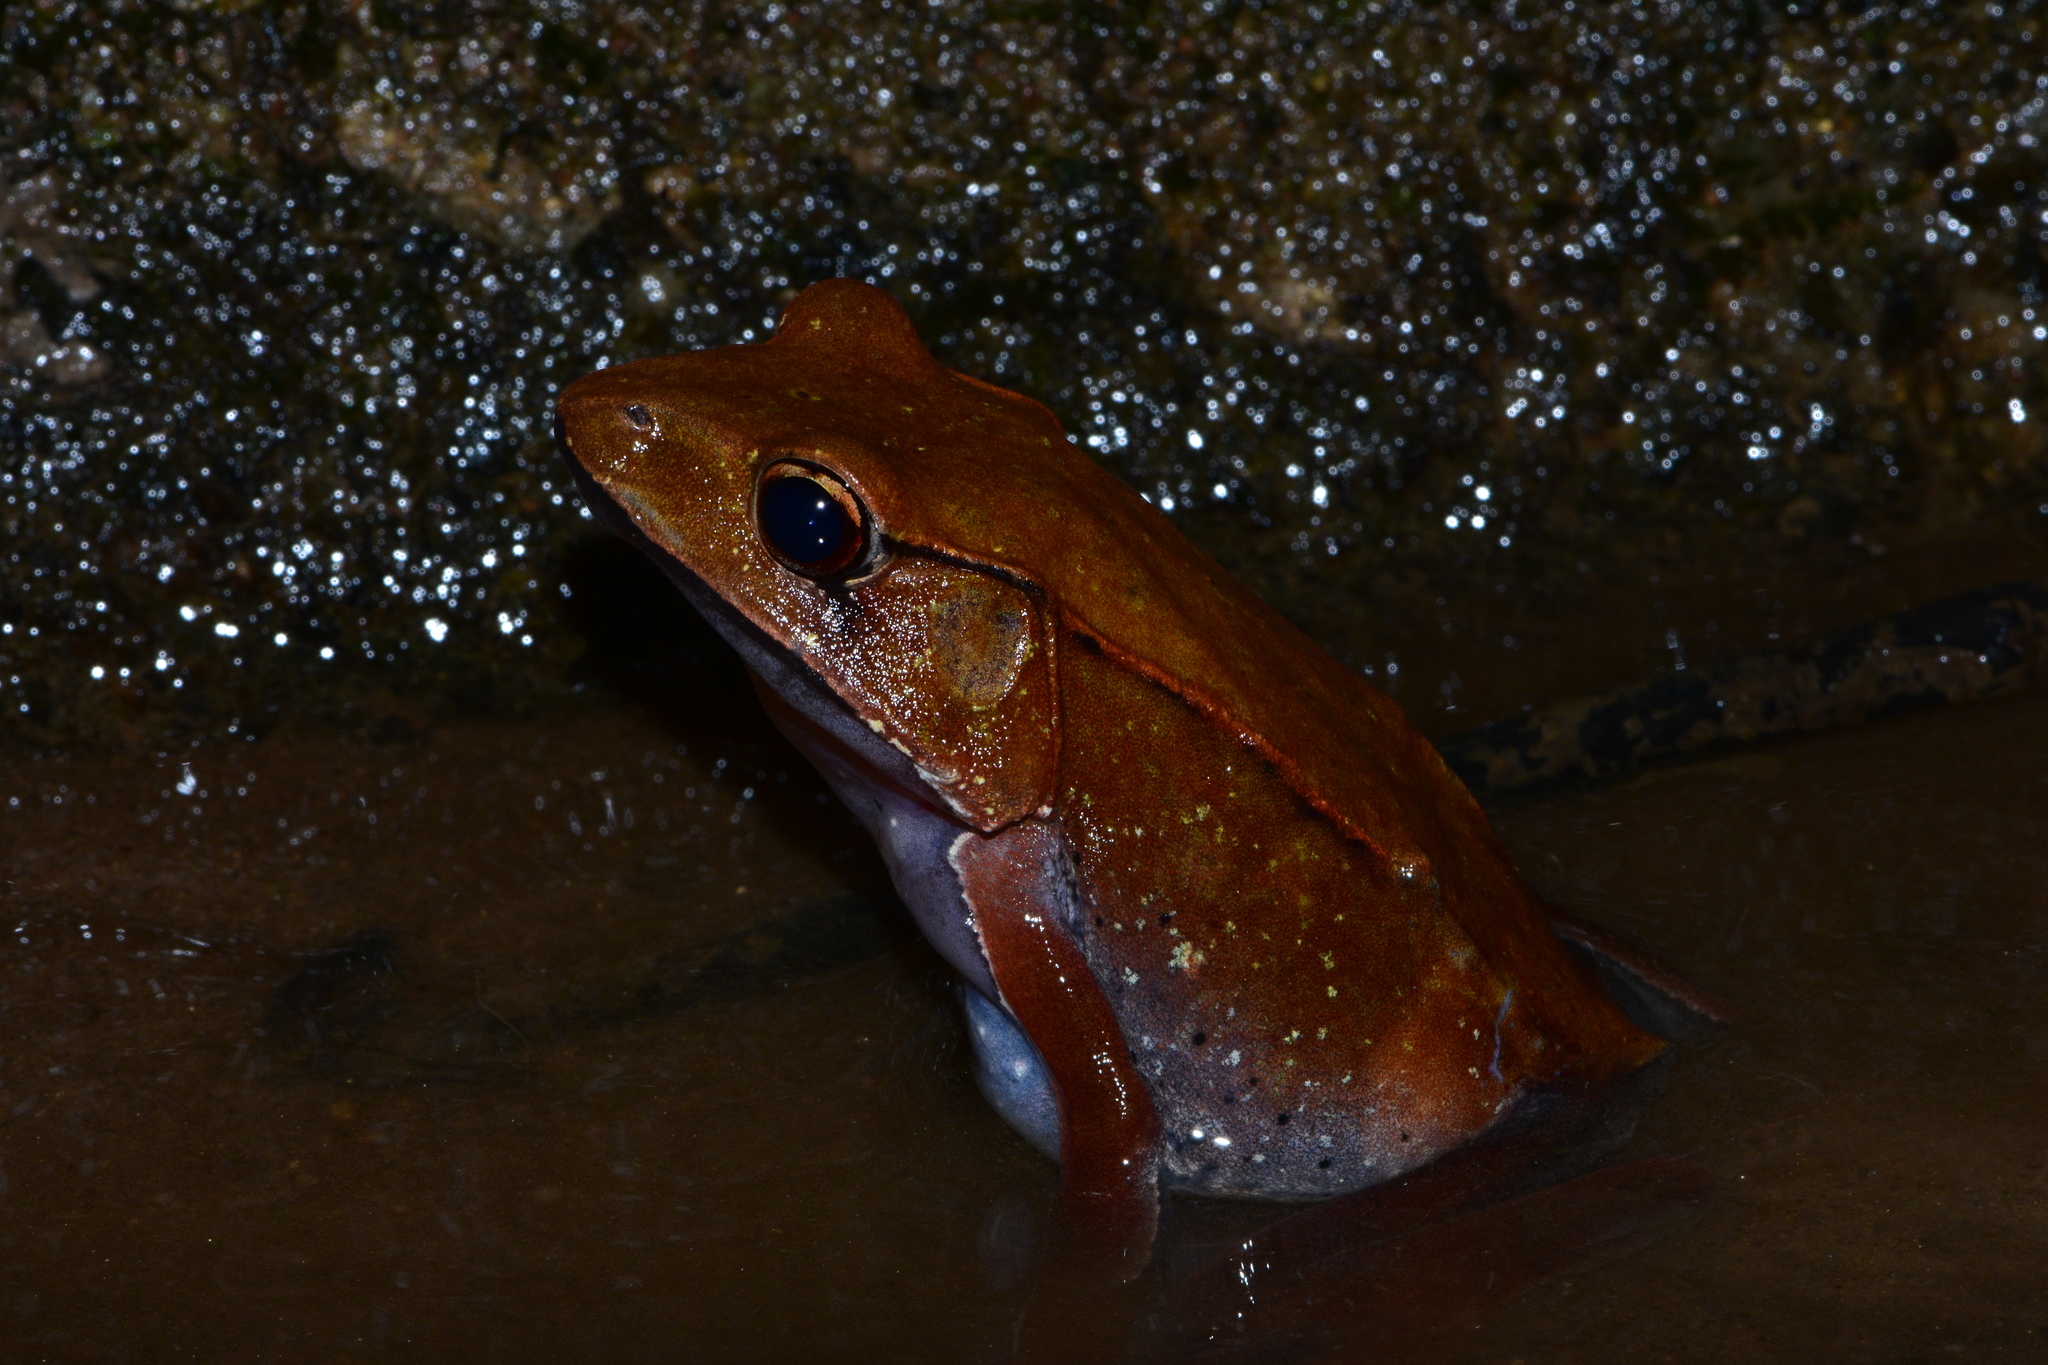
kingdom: Animalia
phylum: Chordata
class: Amphibia
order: Anura
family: Ranidae
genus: Clinotarsus
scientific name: Clinotarsus curtipes
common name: Bicoloured frog
